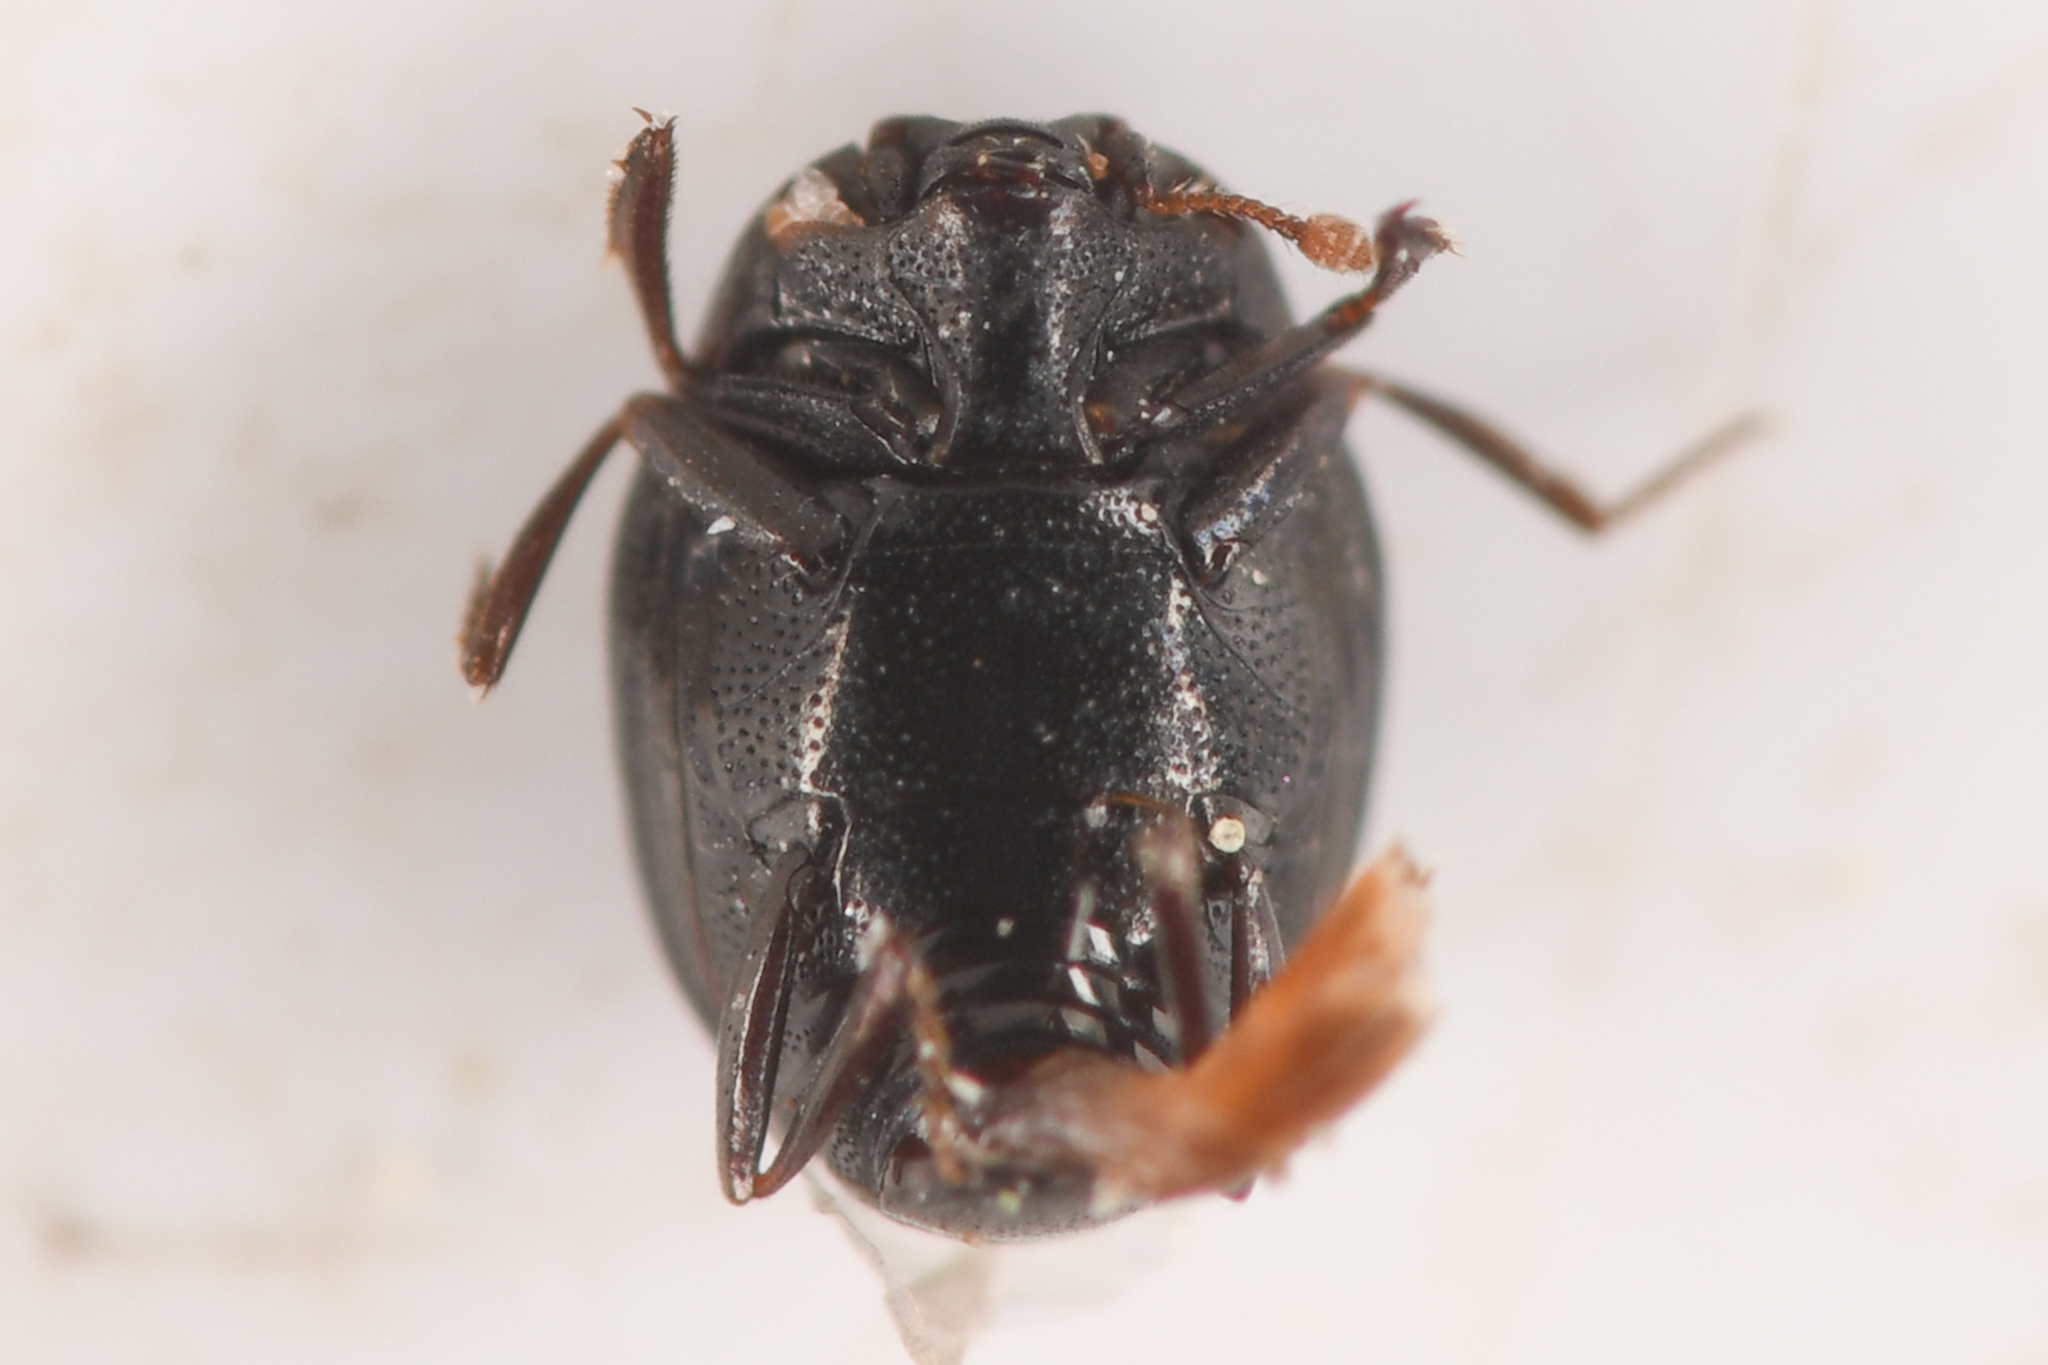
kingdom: Animalia
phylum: Arthropoda
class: Insecta
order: Coleoptera
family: Histeridae
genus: Stictostix
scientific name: Stictostix californica
